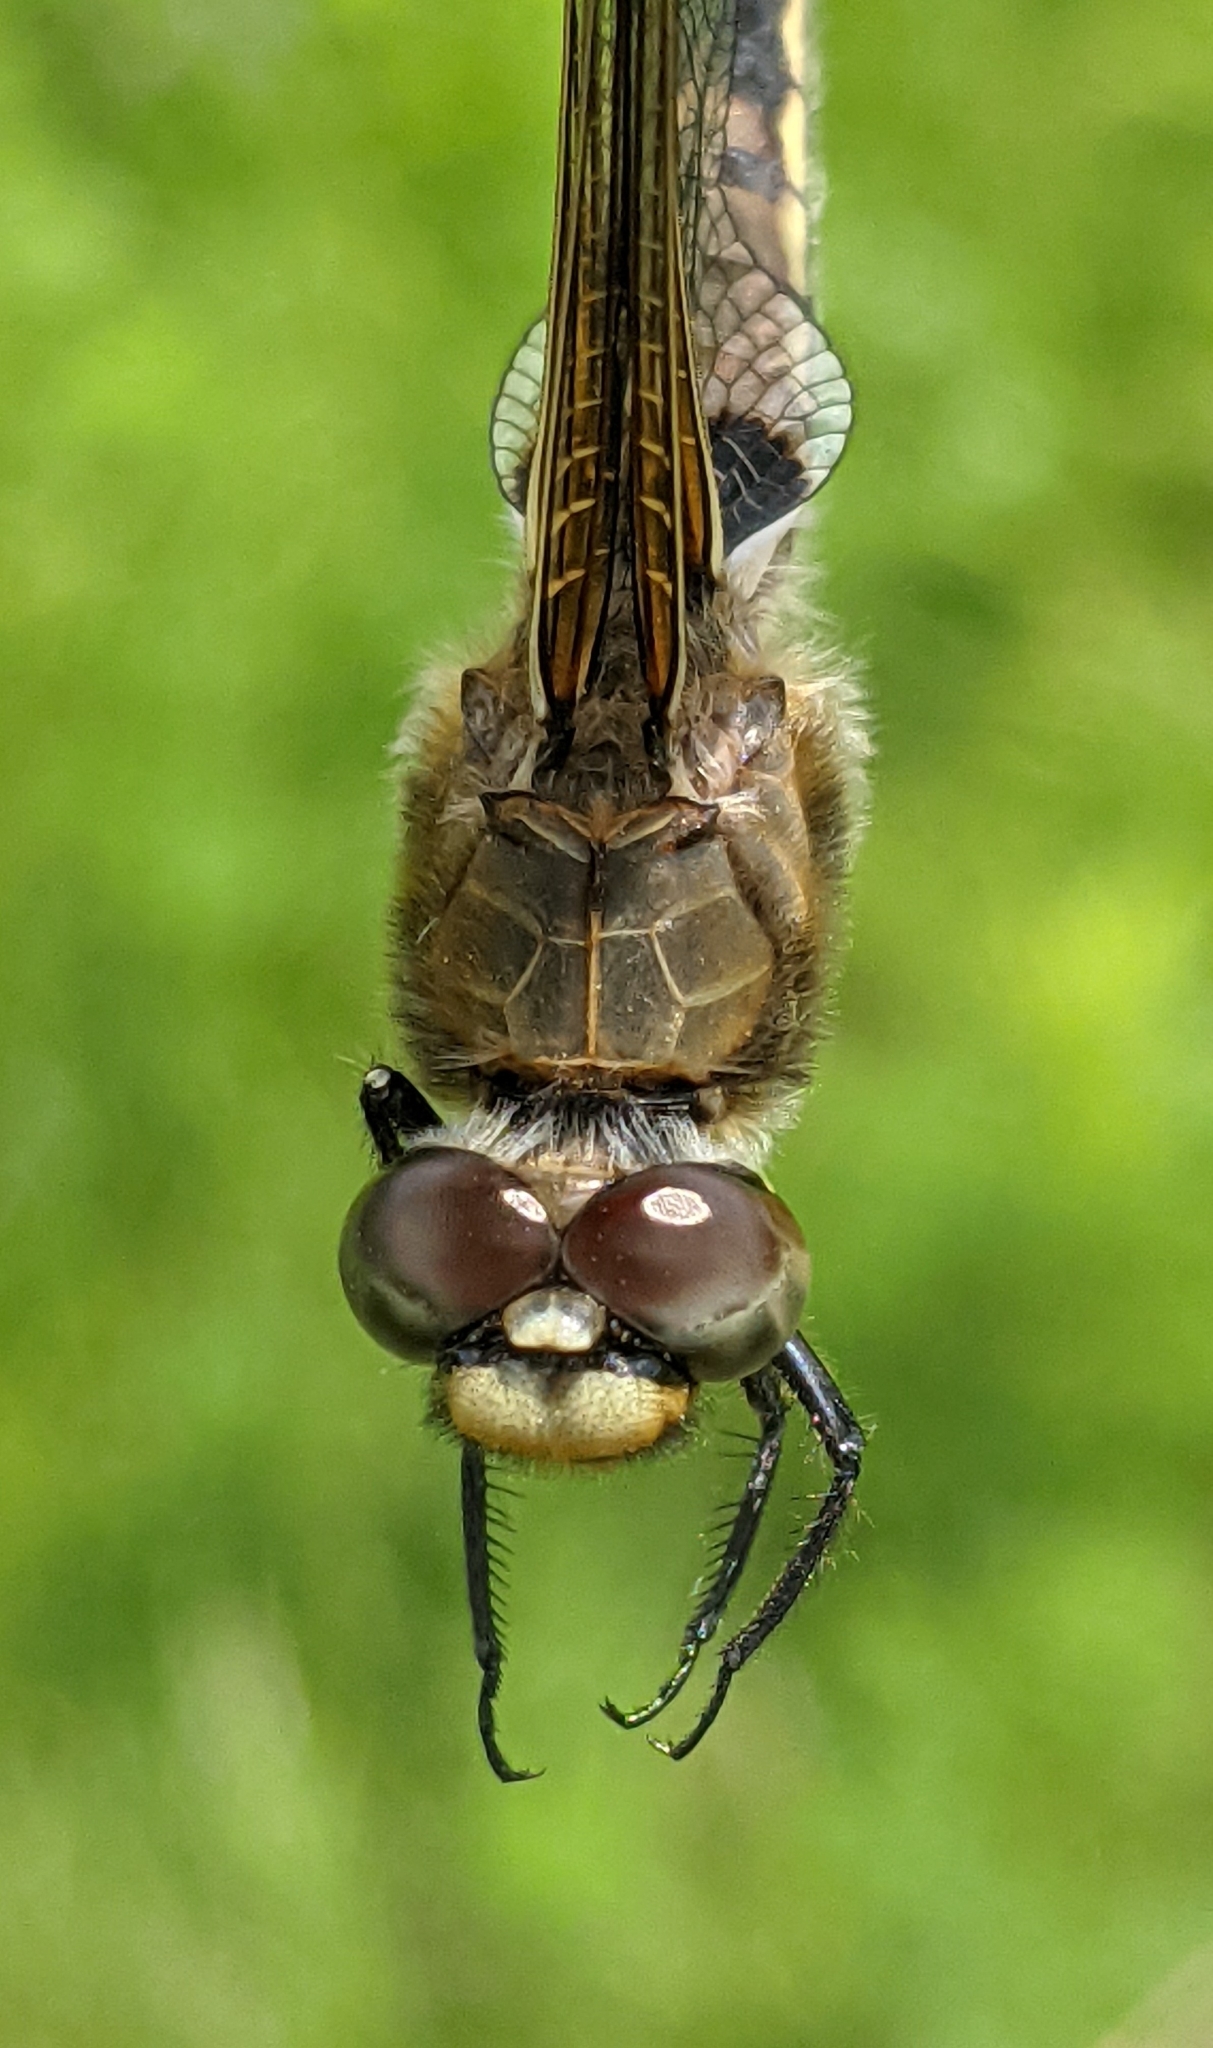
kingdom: Animalia
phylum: Arthropoda
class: Insecta
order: Odonata
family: Libellulidae
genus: Libellula
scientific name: Libellula quadrimaculata
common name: Four-spotted chaser
